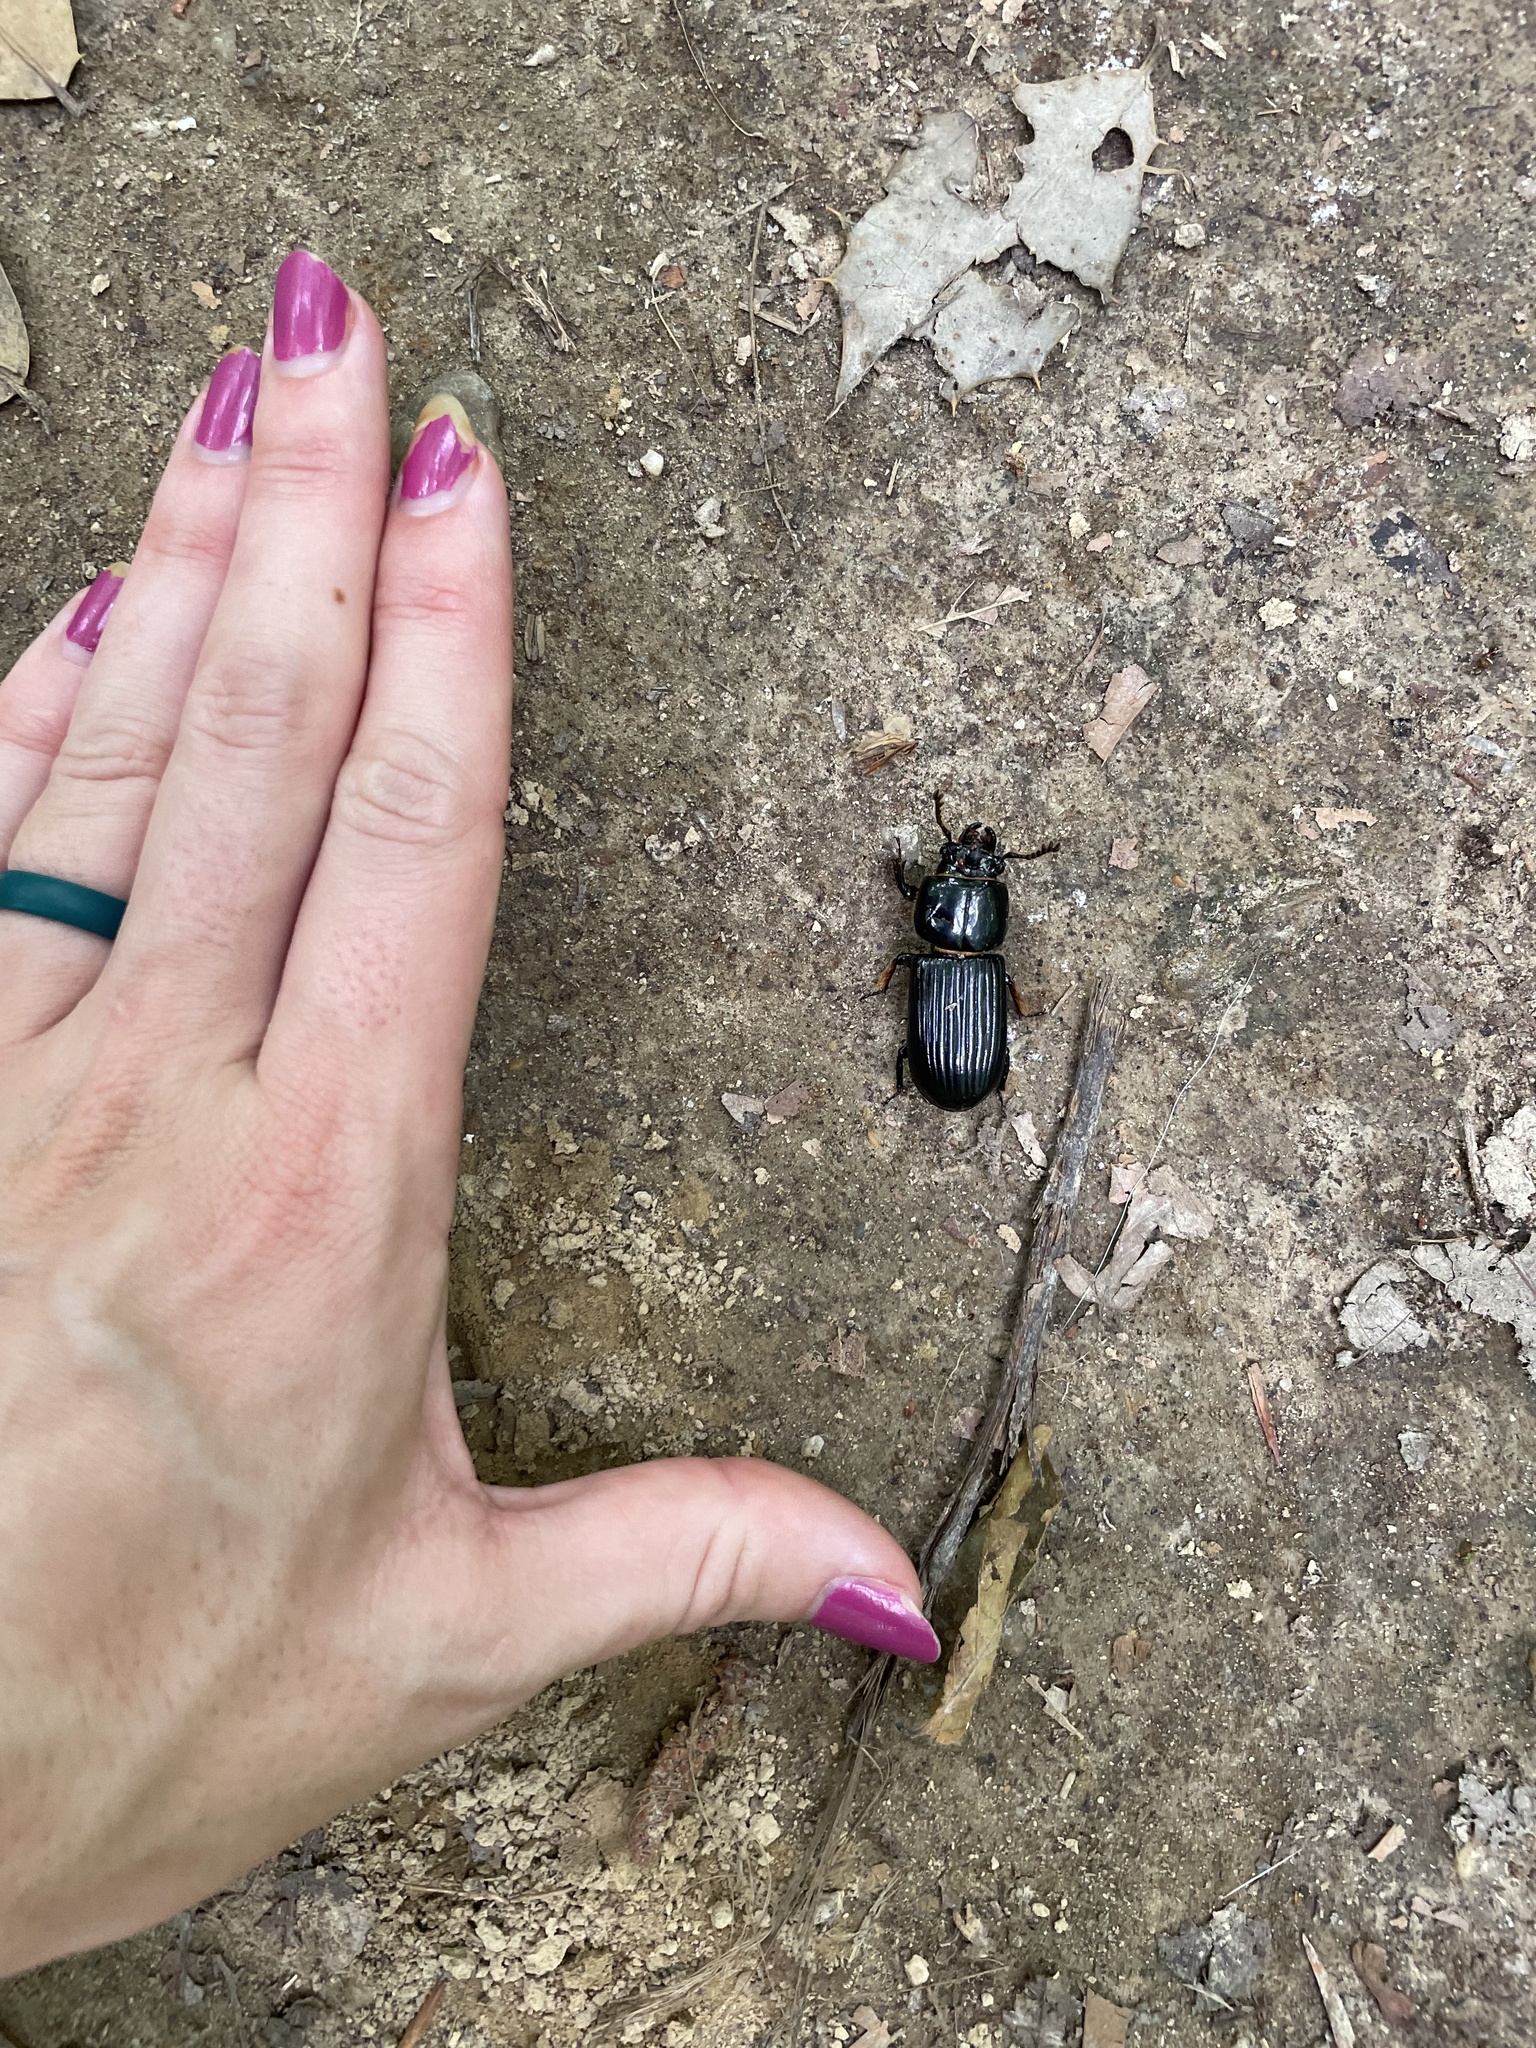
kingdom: Animalia
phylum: Arthropoda
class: Insecta
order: Coleoptera
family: Passalidae
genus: Odontotaenius
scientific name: Odontotaenius disjunctus
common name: Patent leather beetle
